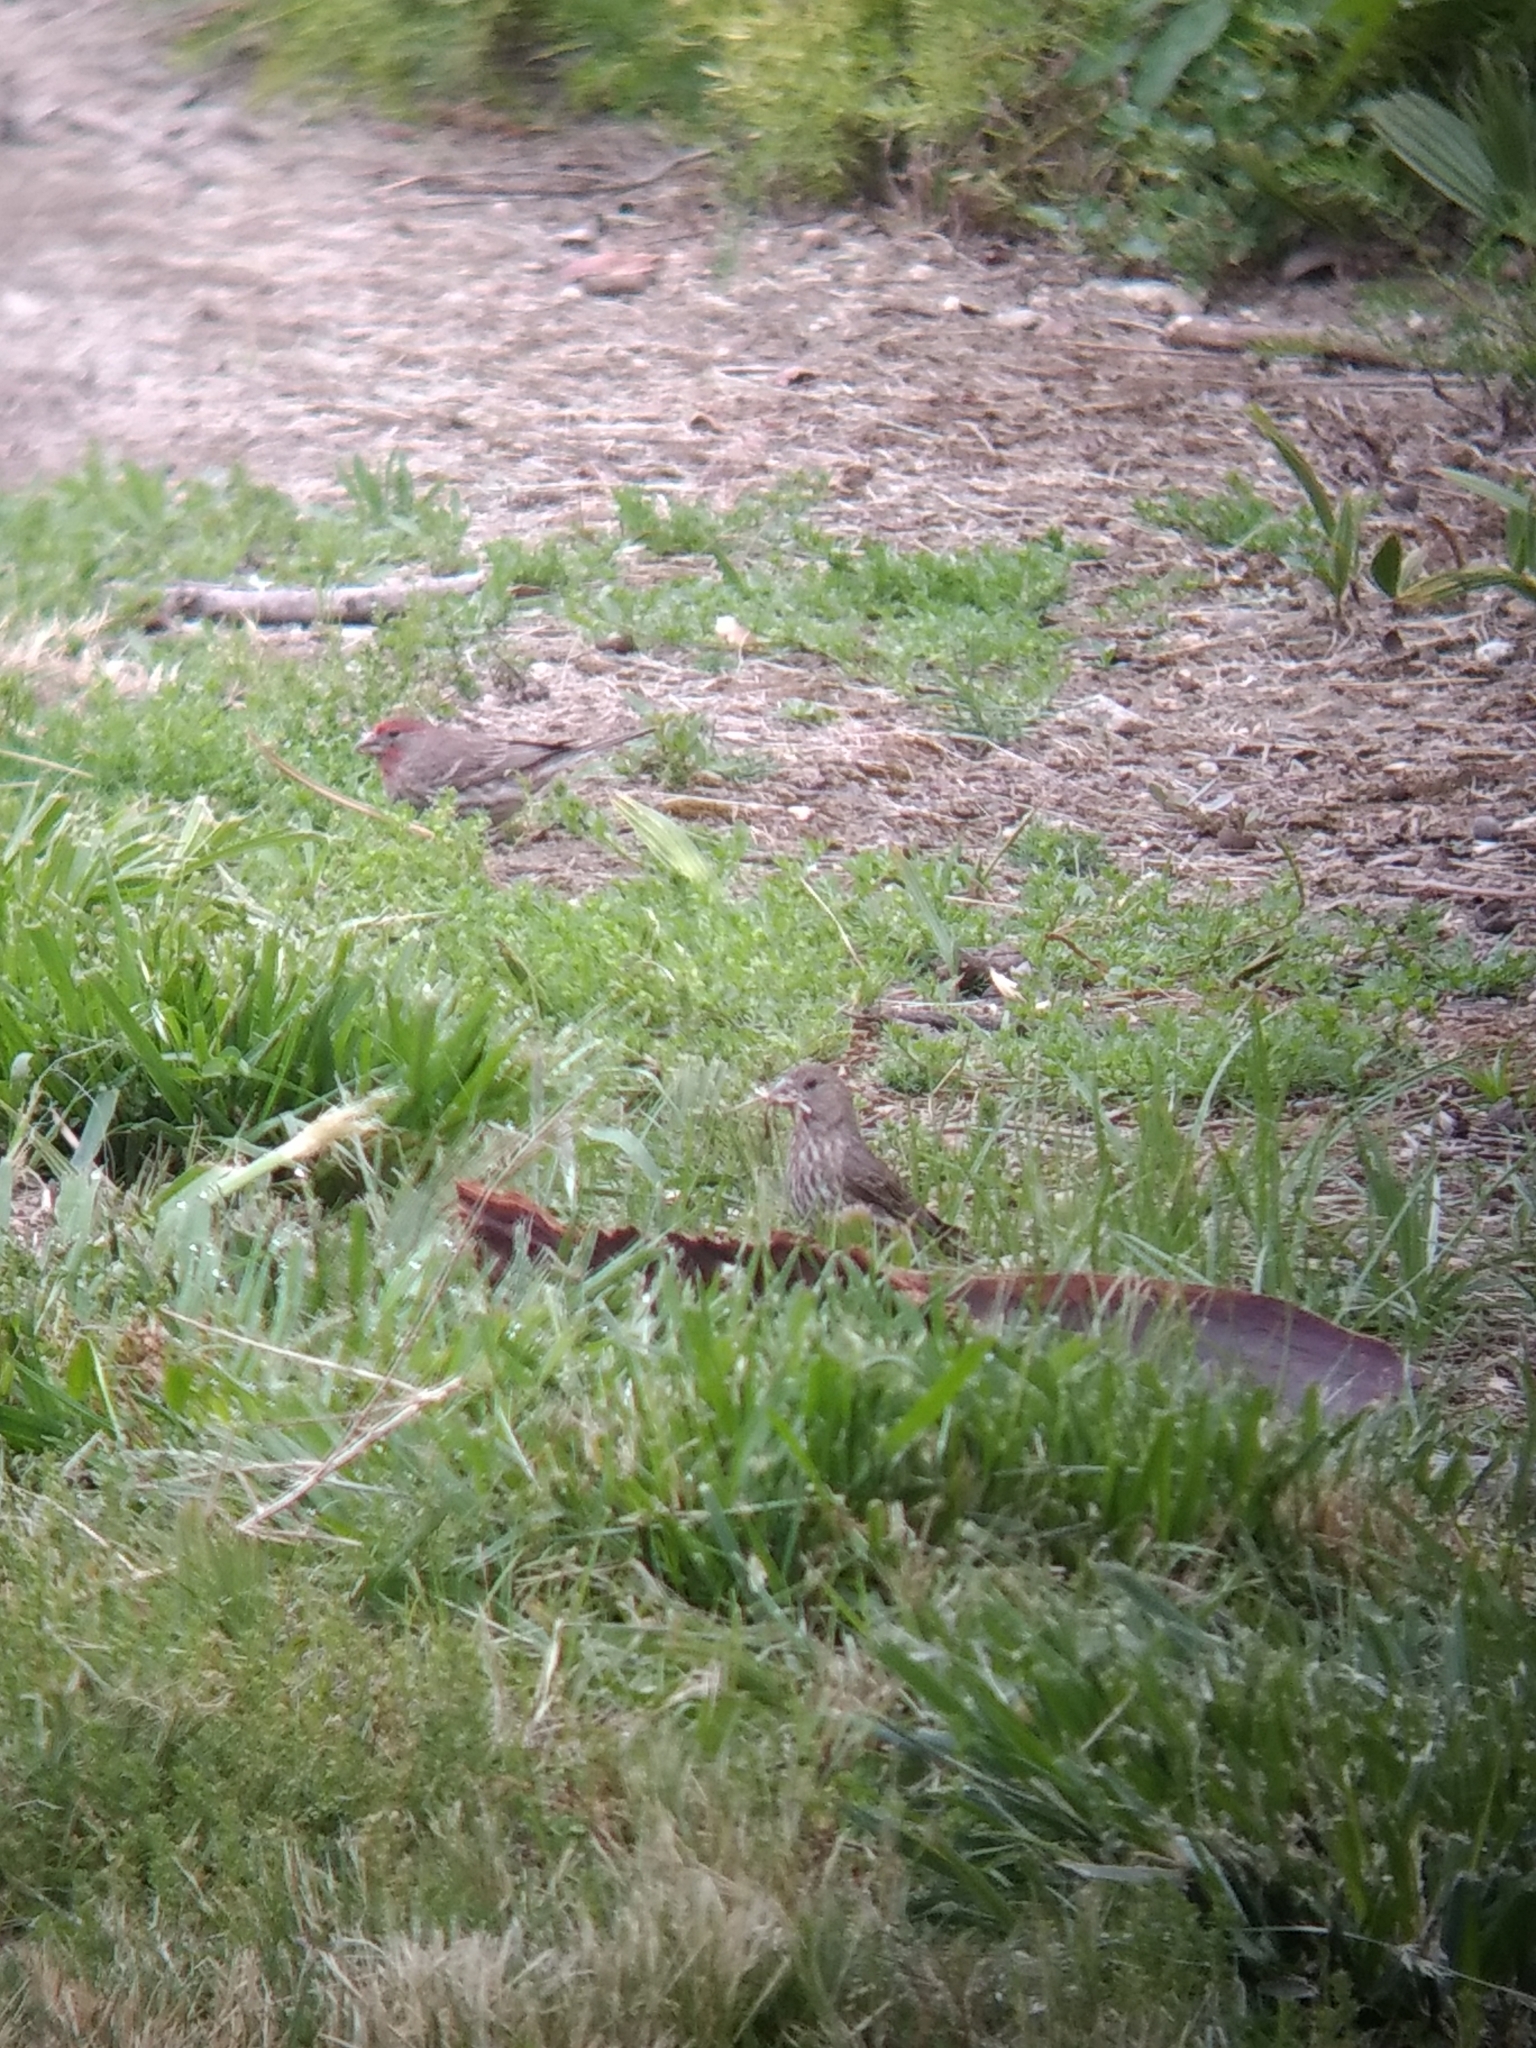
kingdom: Animalia
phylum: Chordata
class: Aves
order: Passeriformes
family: Fringillidae
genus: Haemorhous
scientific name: Haemorhous mexicanus
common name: House finch
